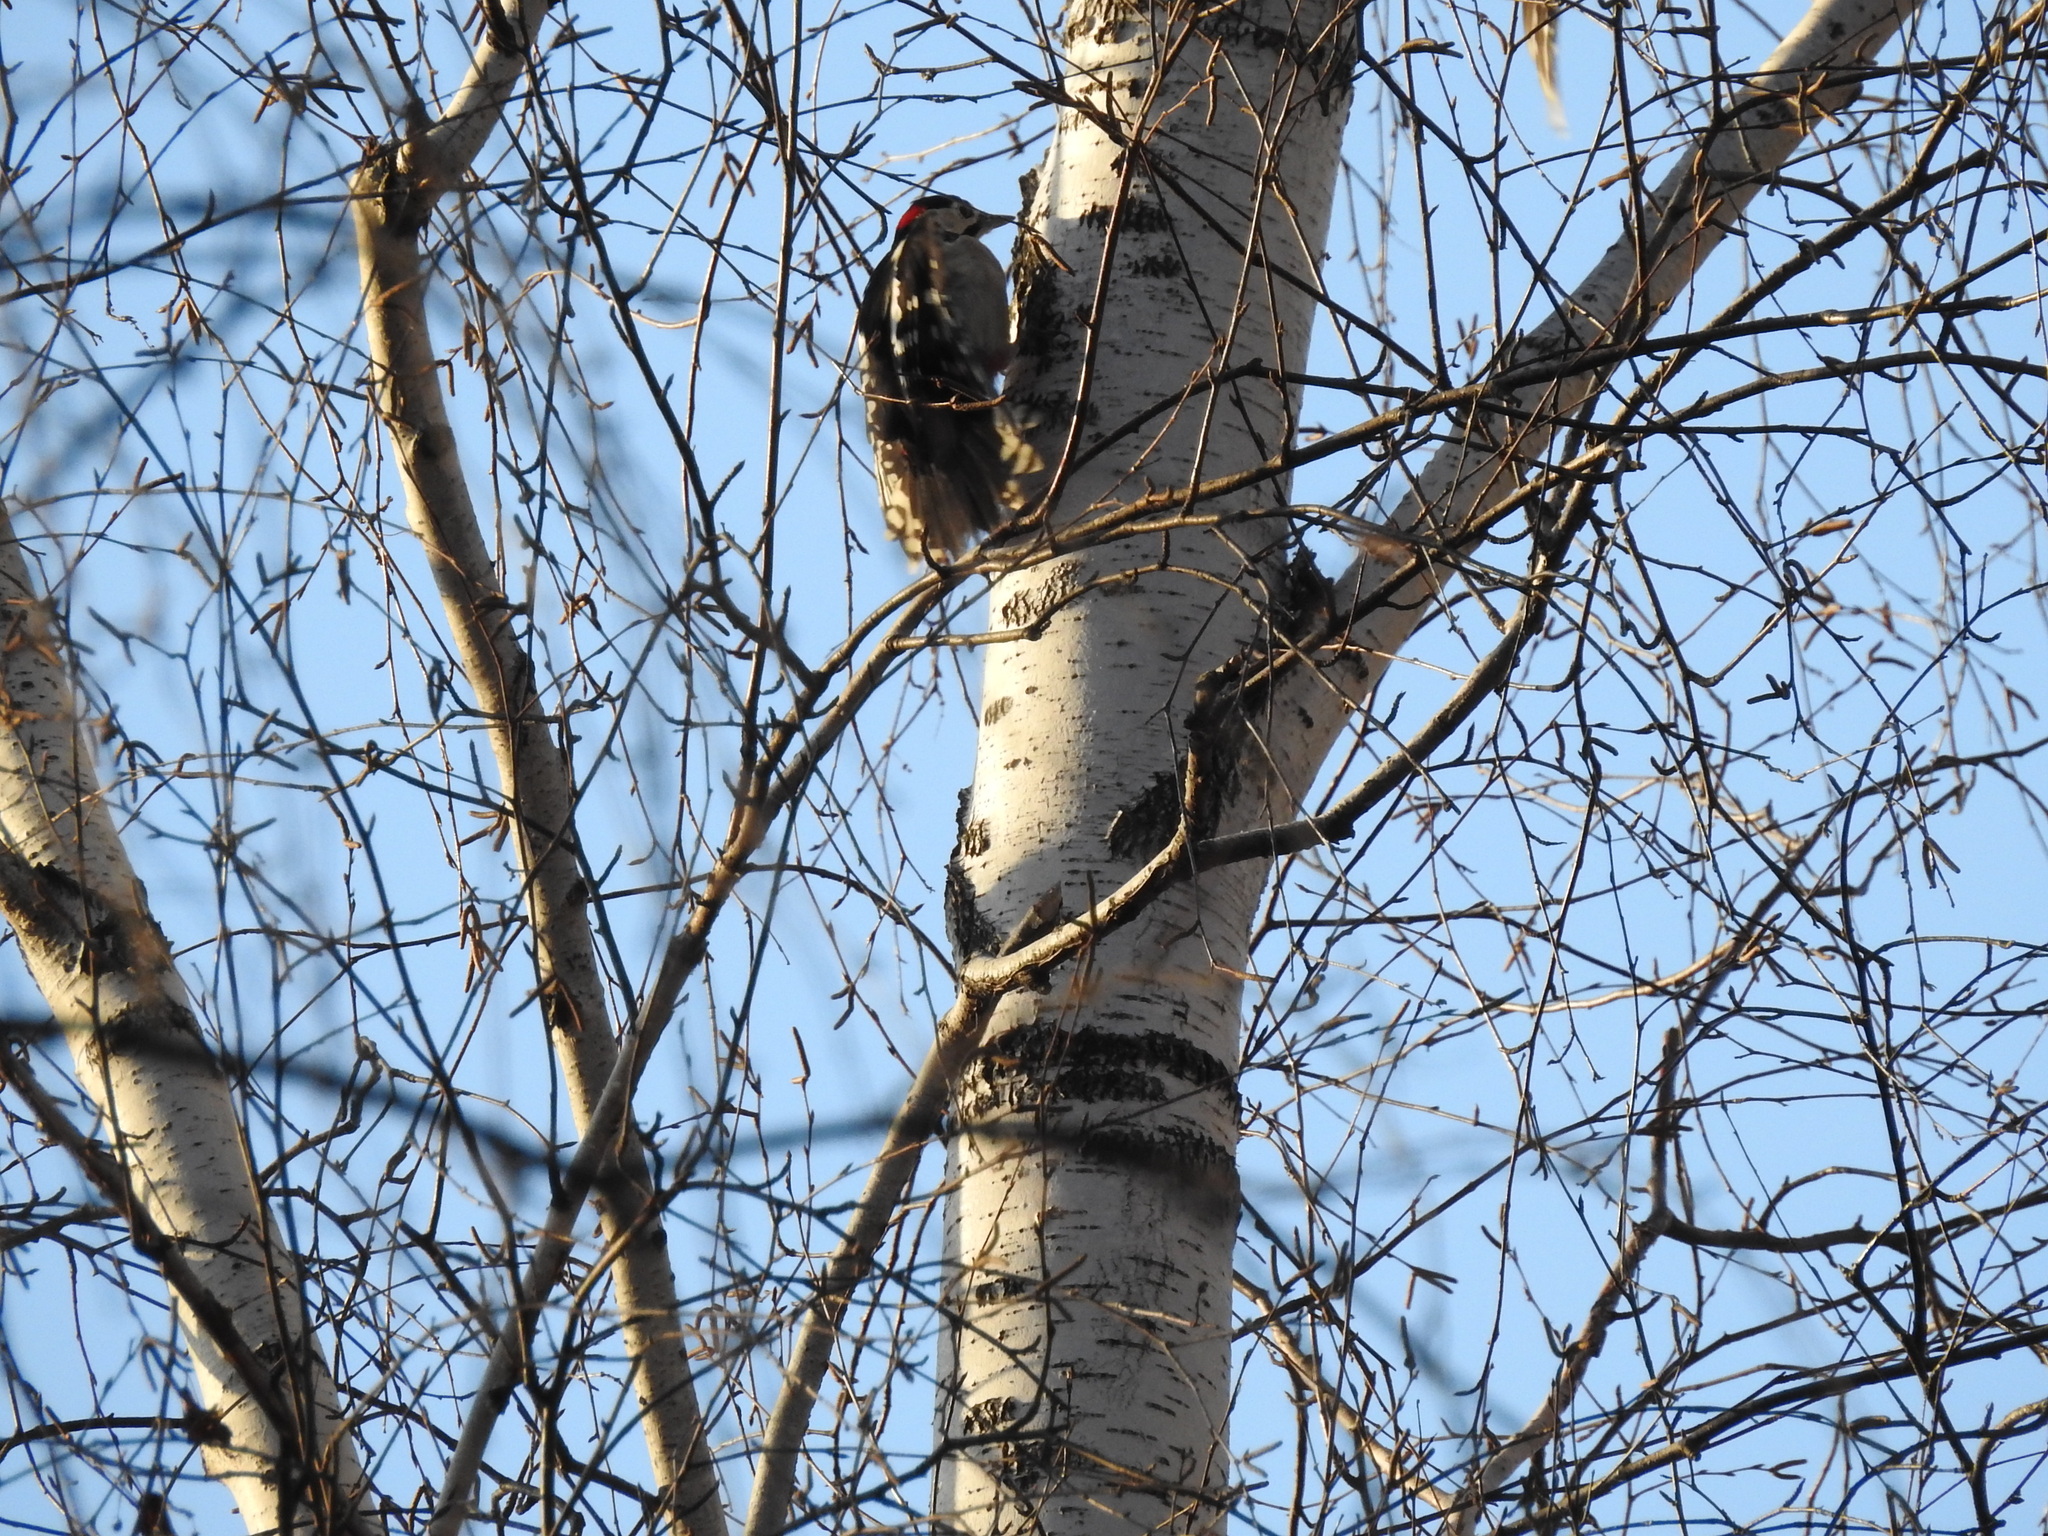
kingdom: Animalia
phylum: Chordata
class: Aves
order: Piciformes
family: Picidae
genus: Dendrocopos
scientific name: Dendrocopos major
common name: Great spotted woodpecker
